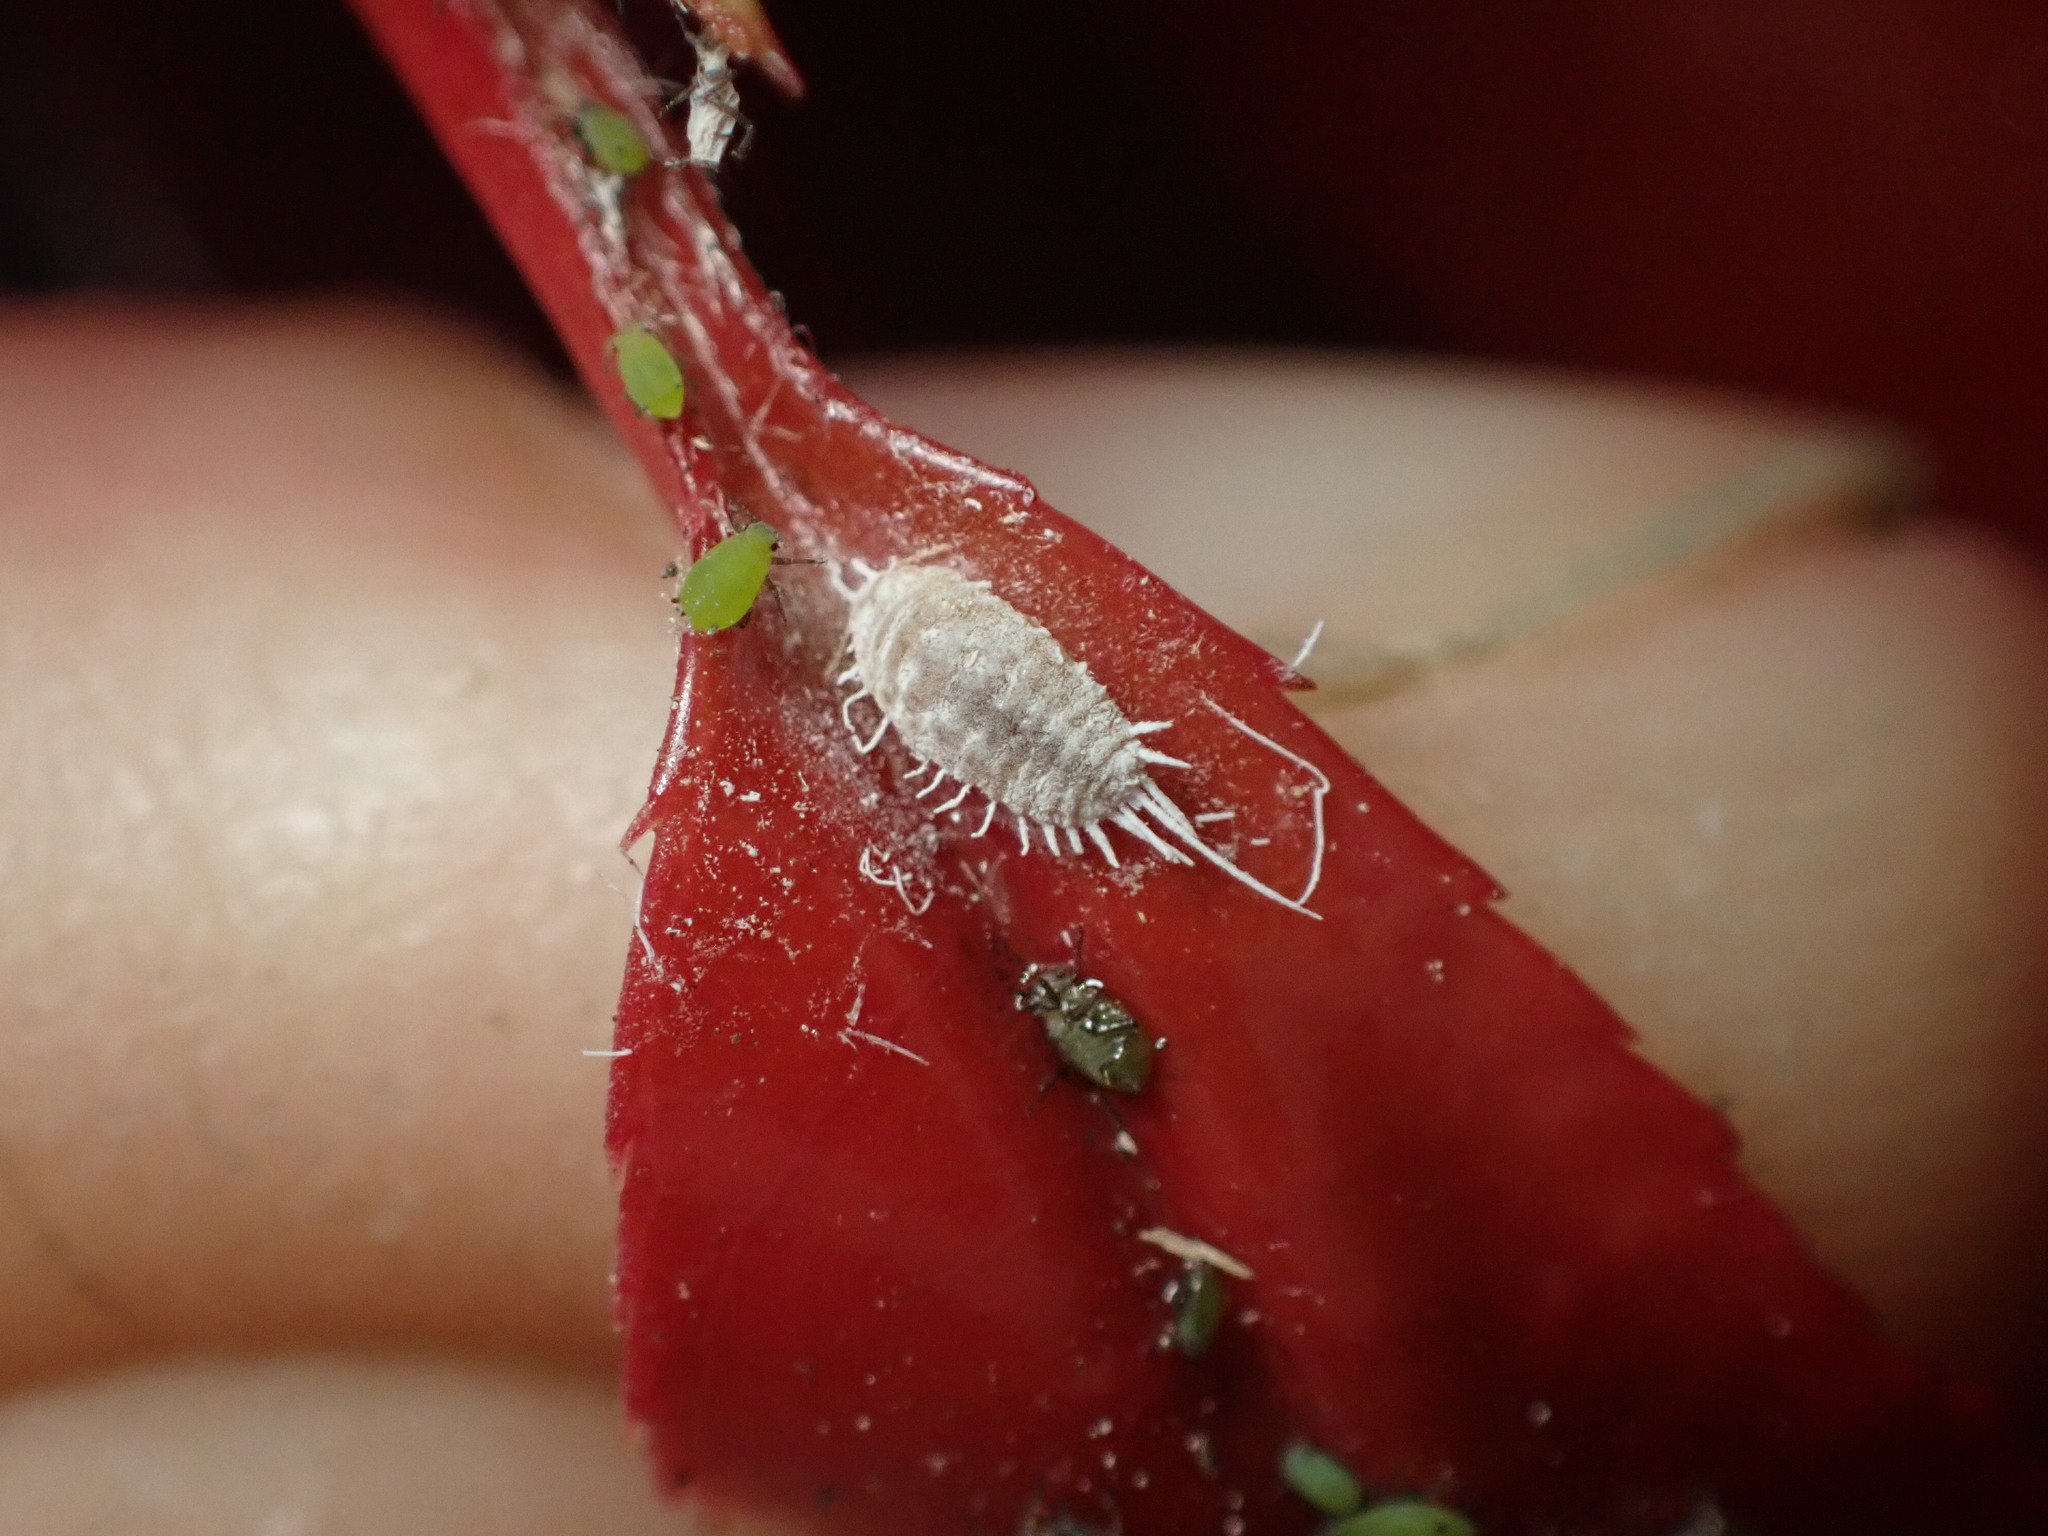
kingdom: Animalia
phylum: Arthropoda
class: Insecta
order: Hemiptera
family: Pseudococcidae
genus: Pseudococcus
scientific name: Pseudococcus longispinus
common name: Long-tailed mealybug
